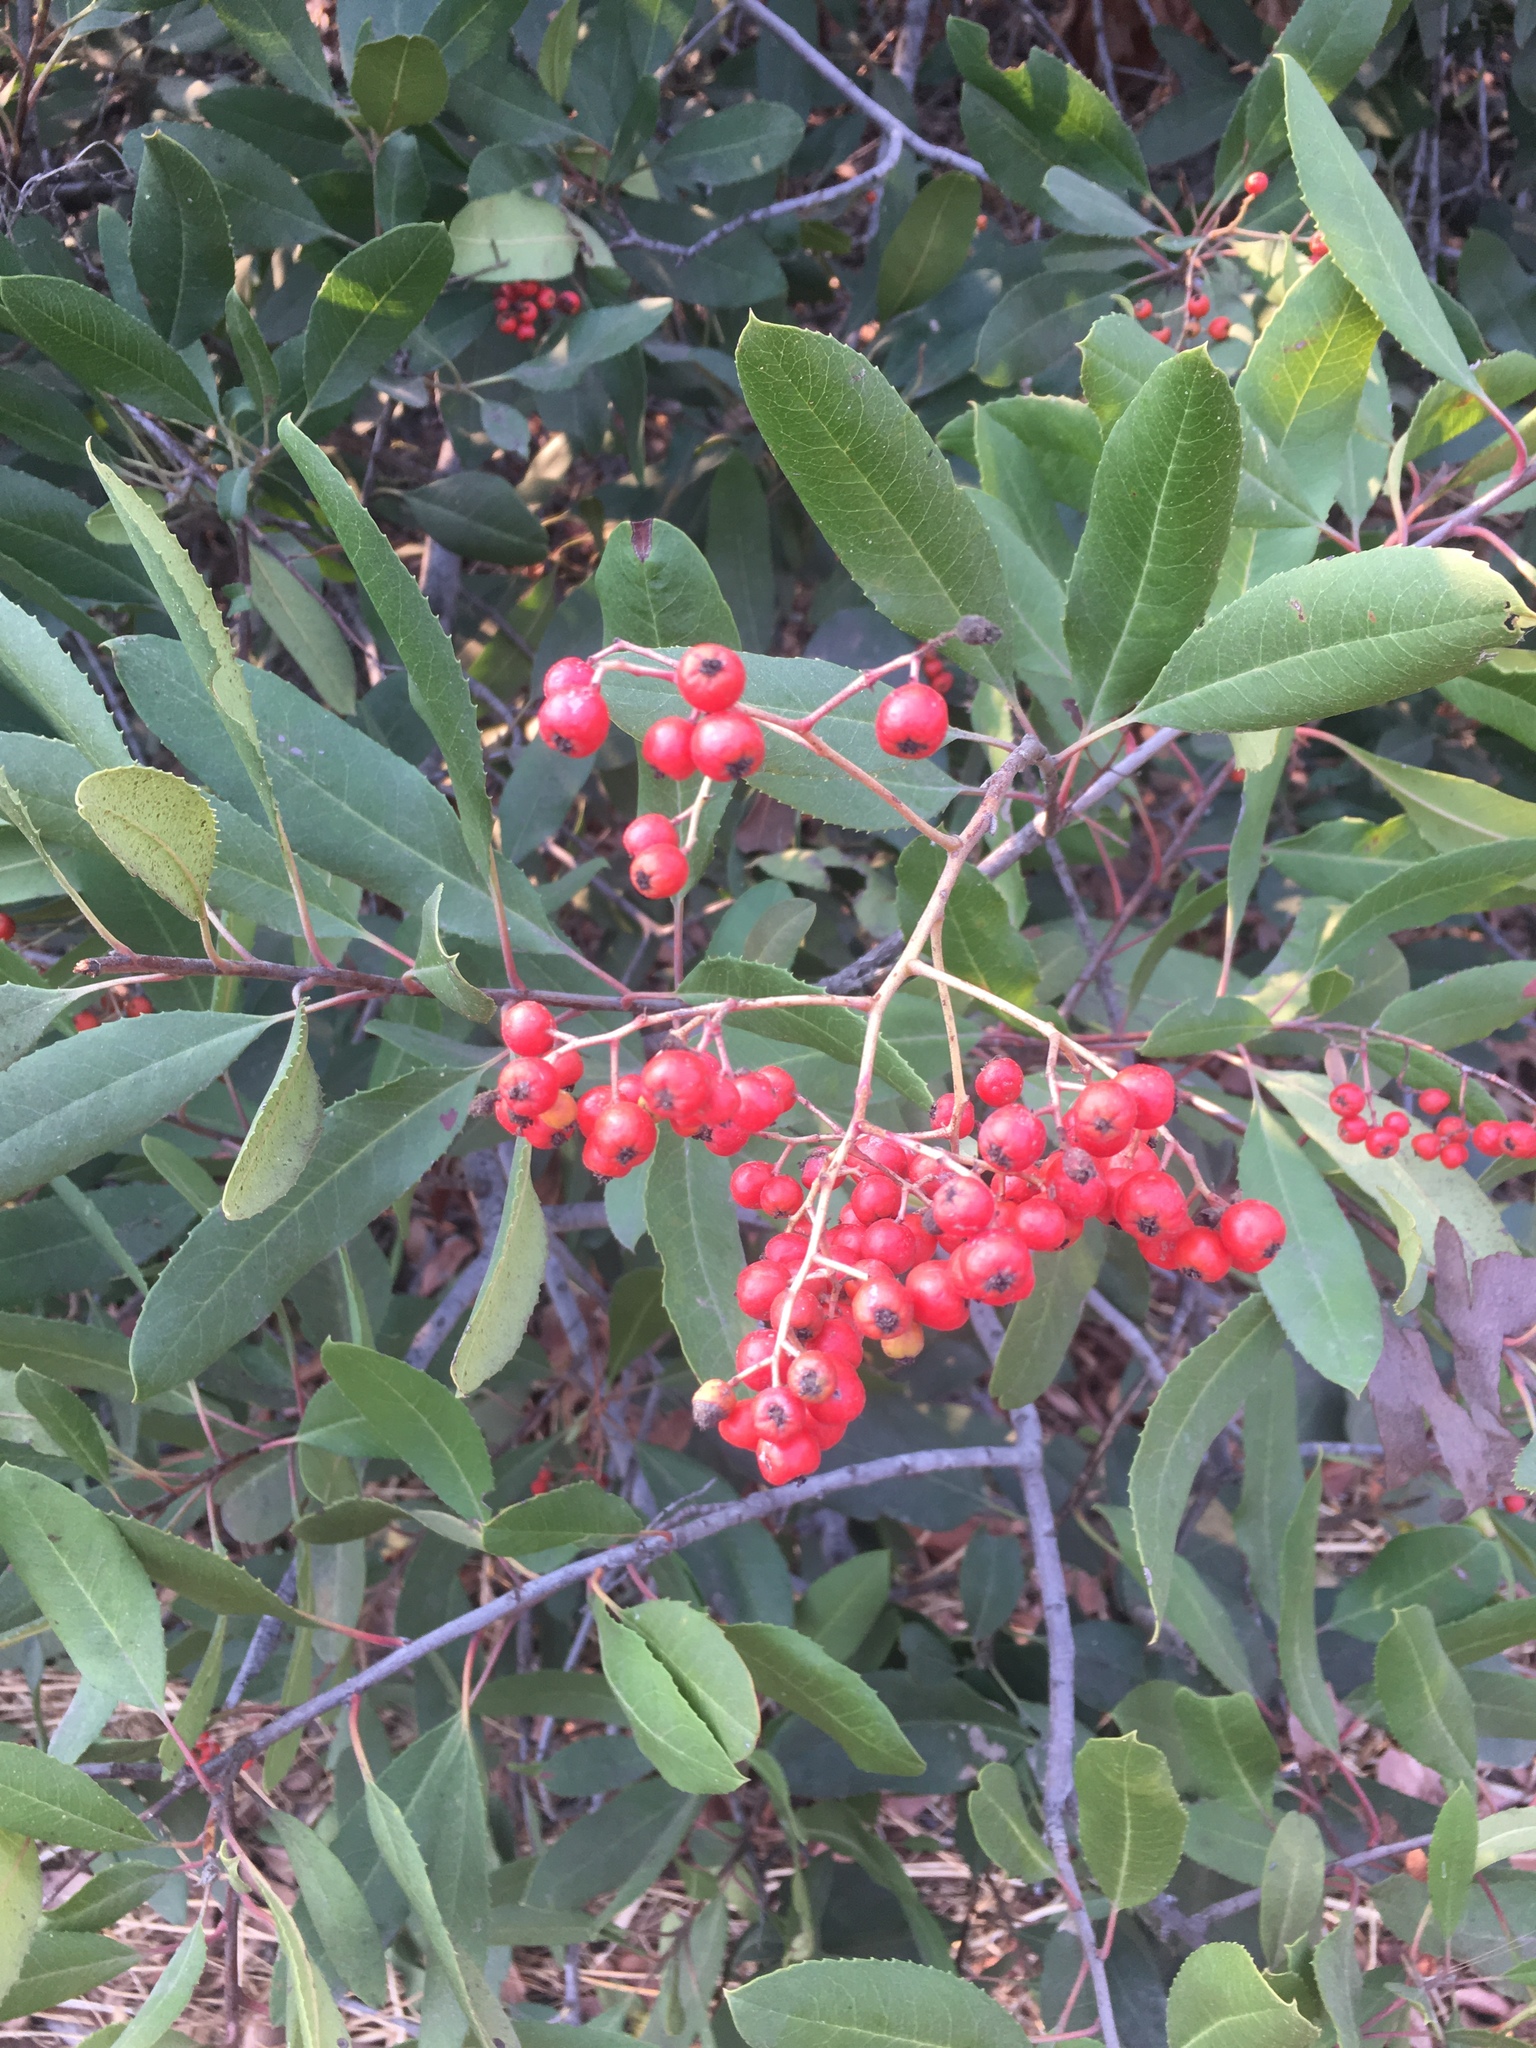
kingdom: Plantae
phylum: Tracheophyta
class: Magnoliopsida
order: Rosales
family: Rosaceae
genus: Heteromeles
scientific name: Heteromeles arbutifolia
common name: California-holly
